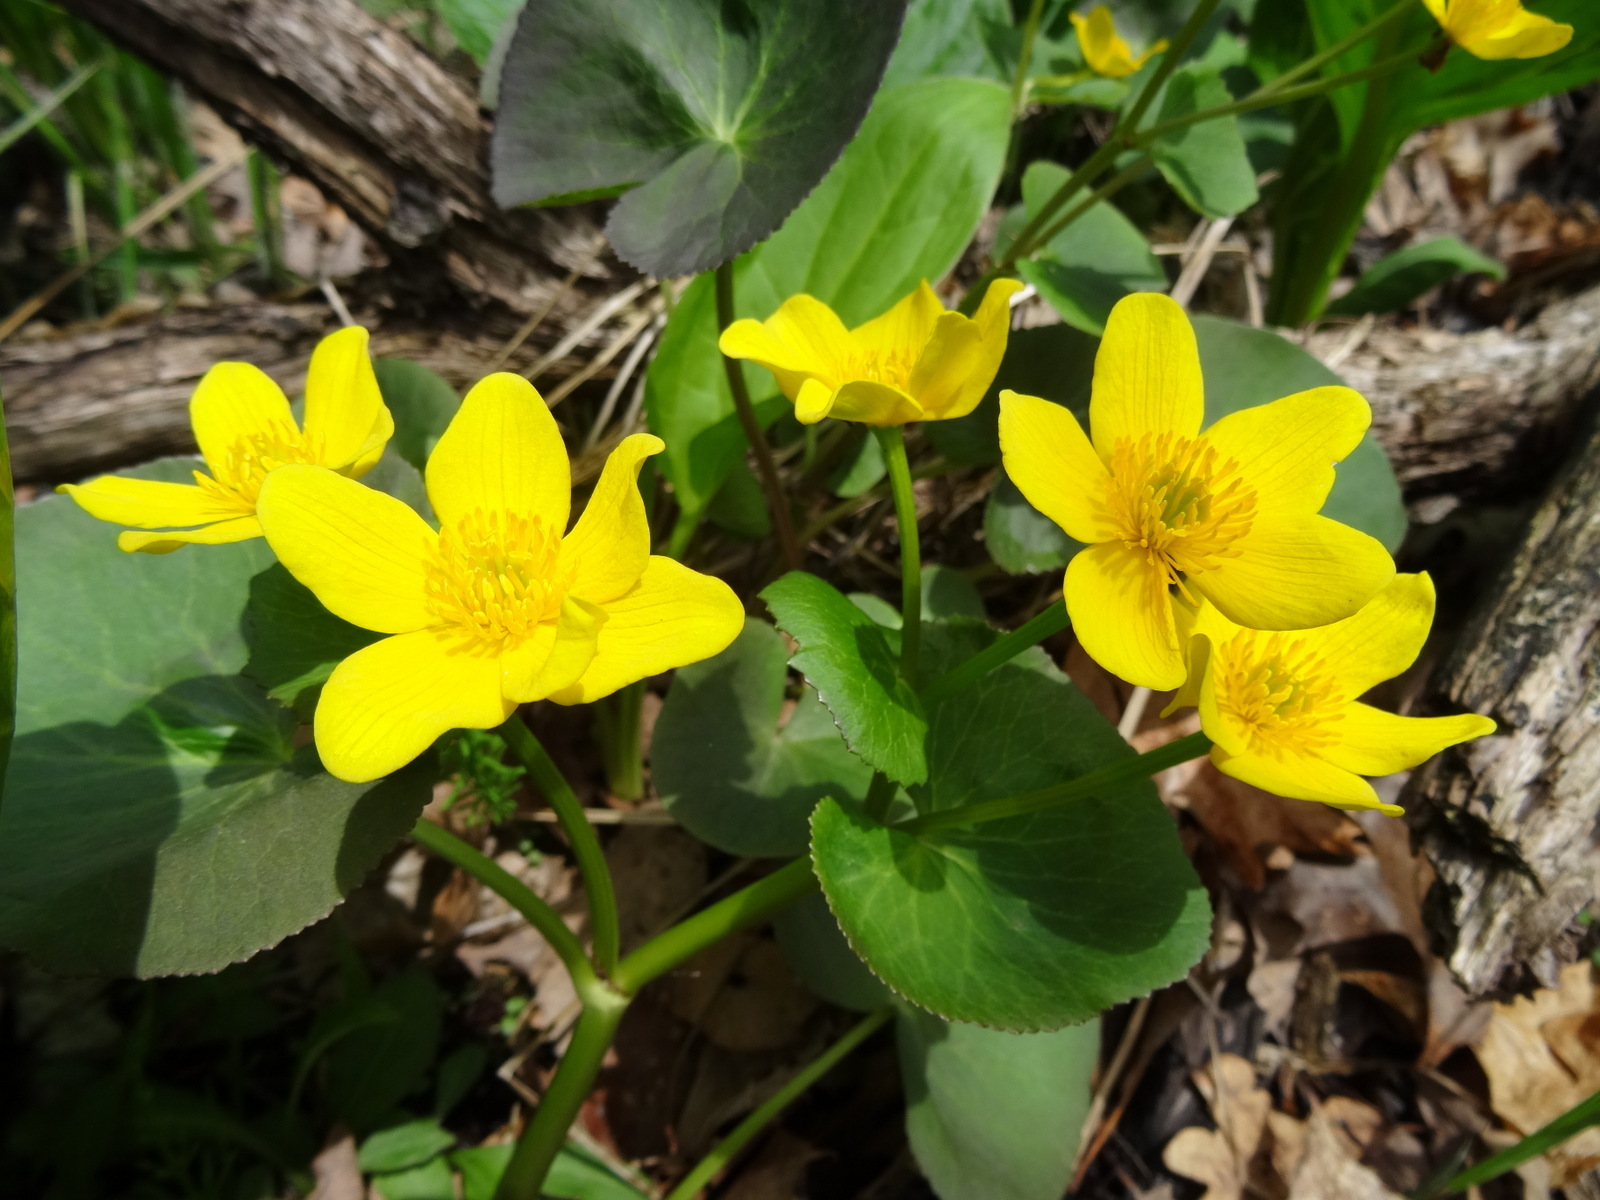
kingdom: Plantae
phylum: Tracheophyta
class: Magnoliopsida
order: Ranunculales
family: Ranunculaceae
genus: Caltha
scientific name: Caltha palustris
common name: Marsh marigold
